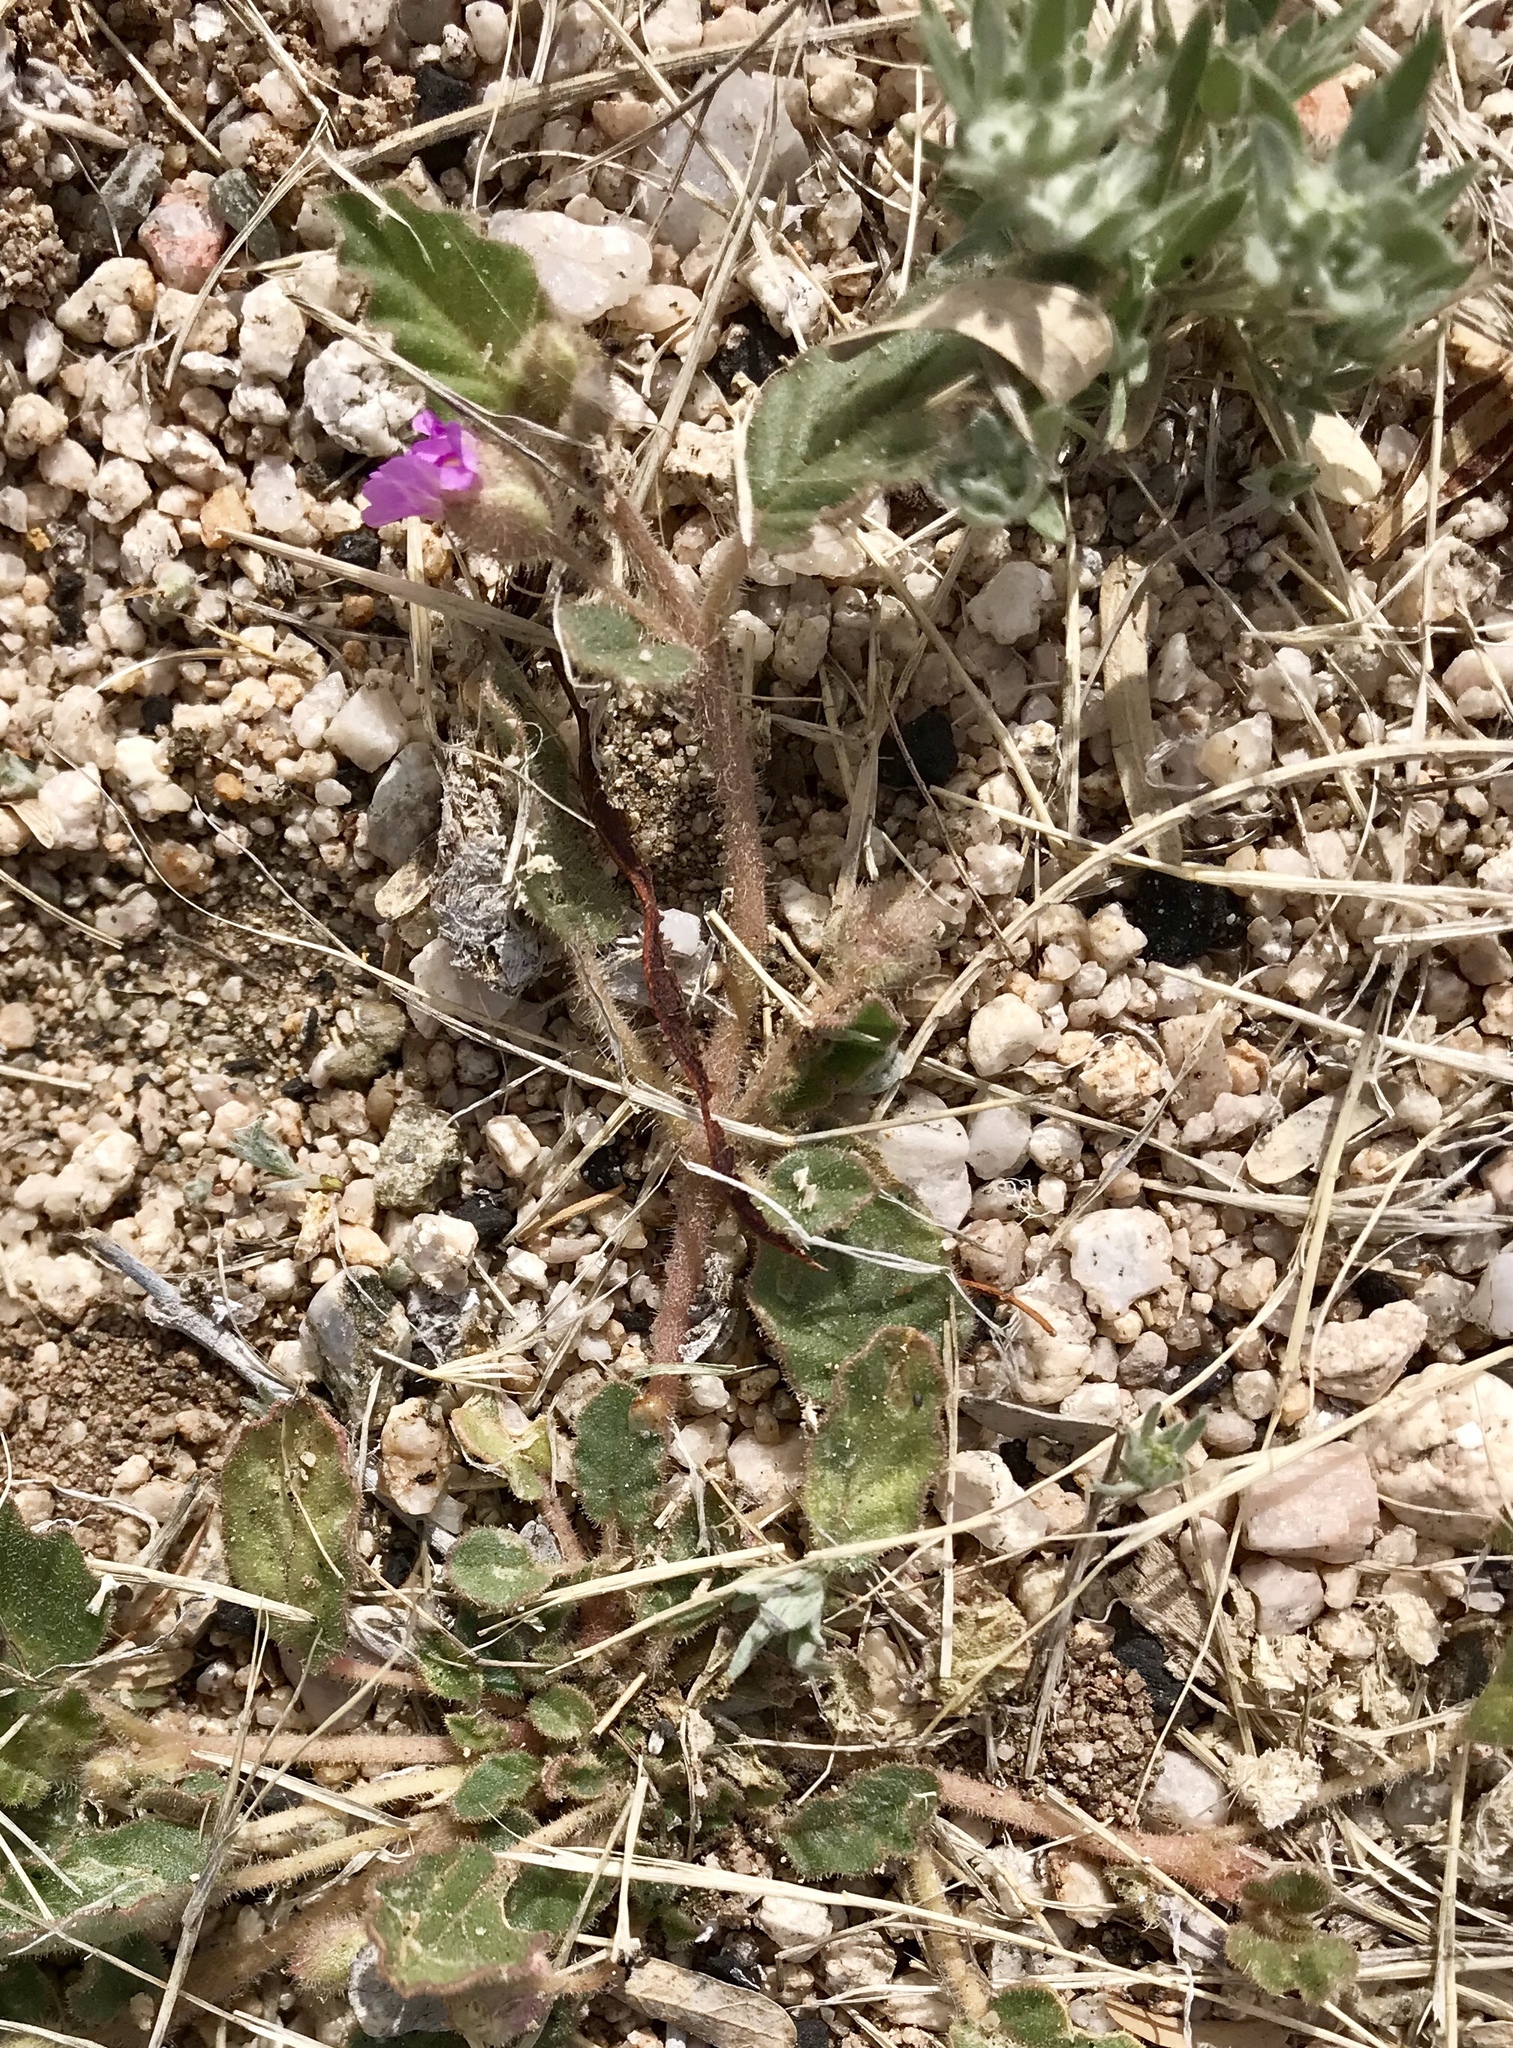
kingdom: Plantae
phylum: Tracheophyta
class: Magnoliopsida
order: Caryophyllales
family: Nyctaginaceae
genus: Allionia
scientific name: Allionia incarnata
